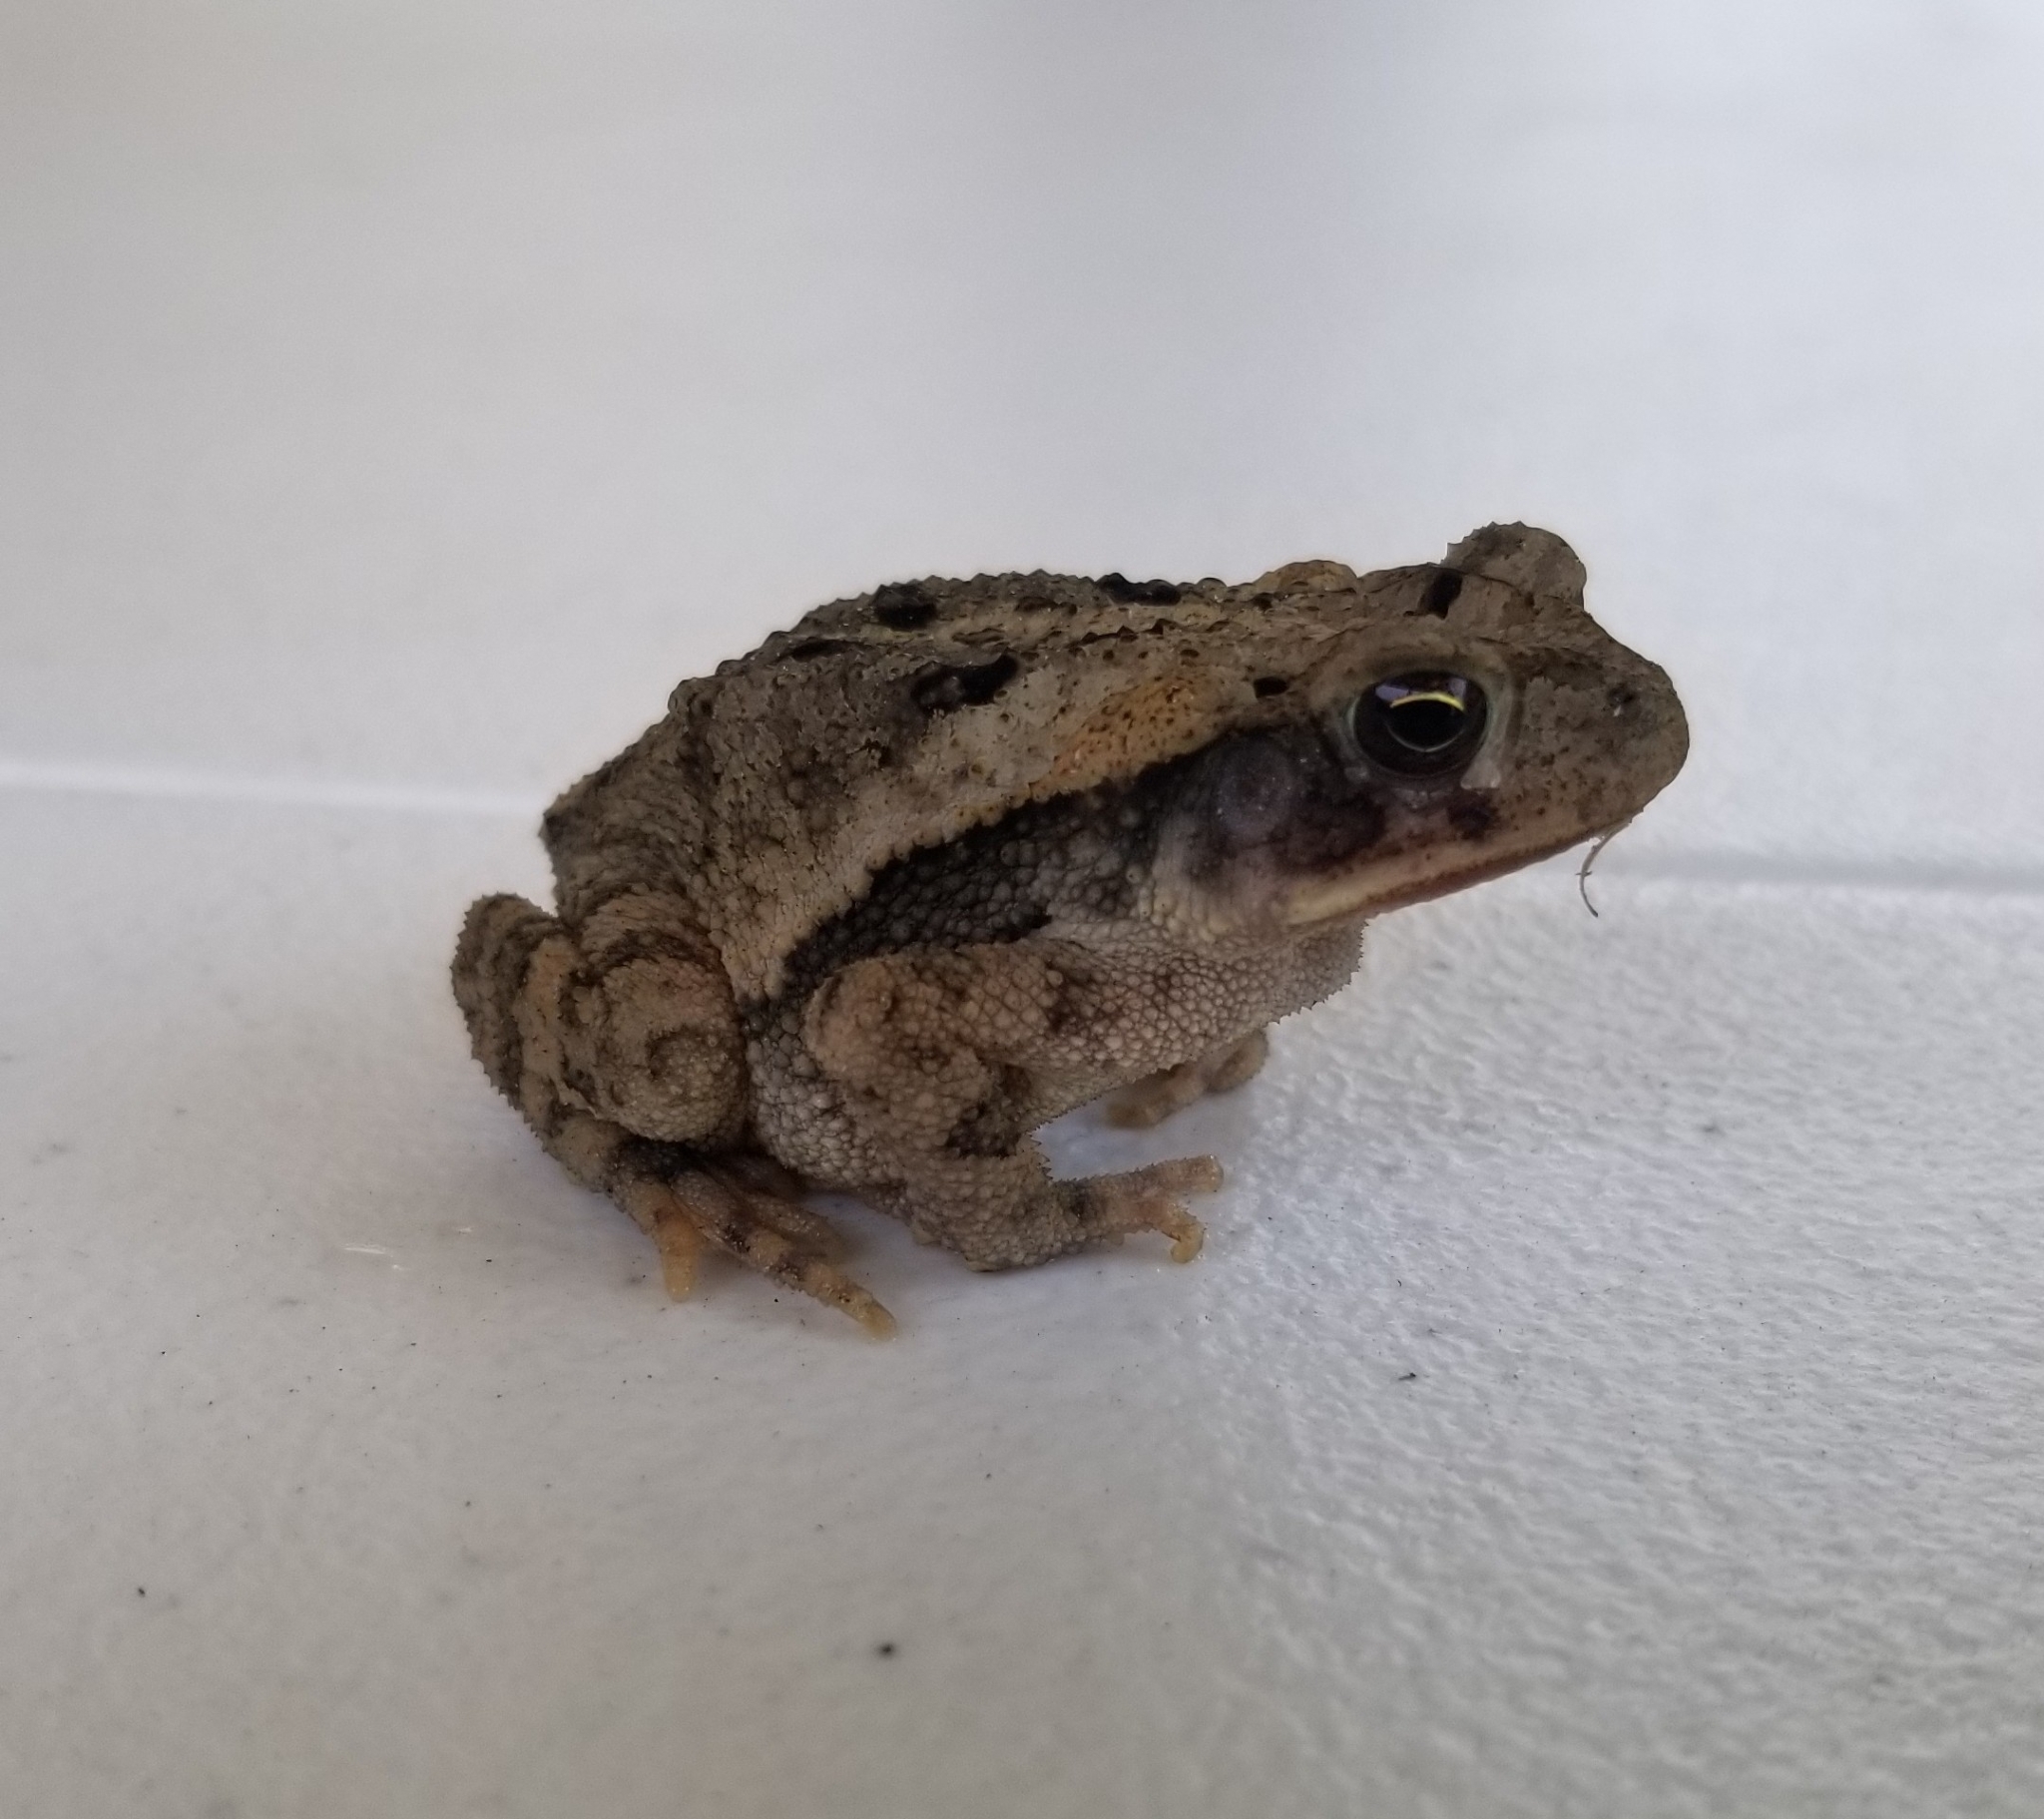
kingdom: Animalia
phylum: Chordata
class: Amphibia
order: Anura
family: Bufonidae
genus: Incilius
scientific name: Incilius nebulifer
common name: Gulf coast toad
